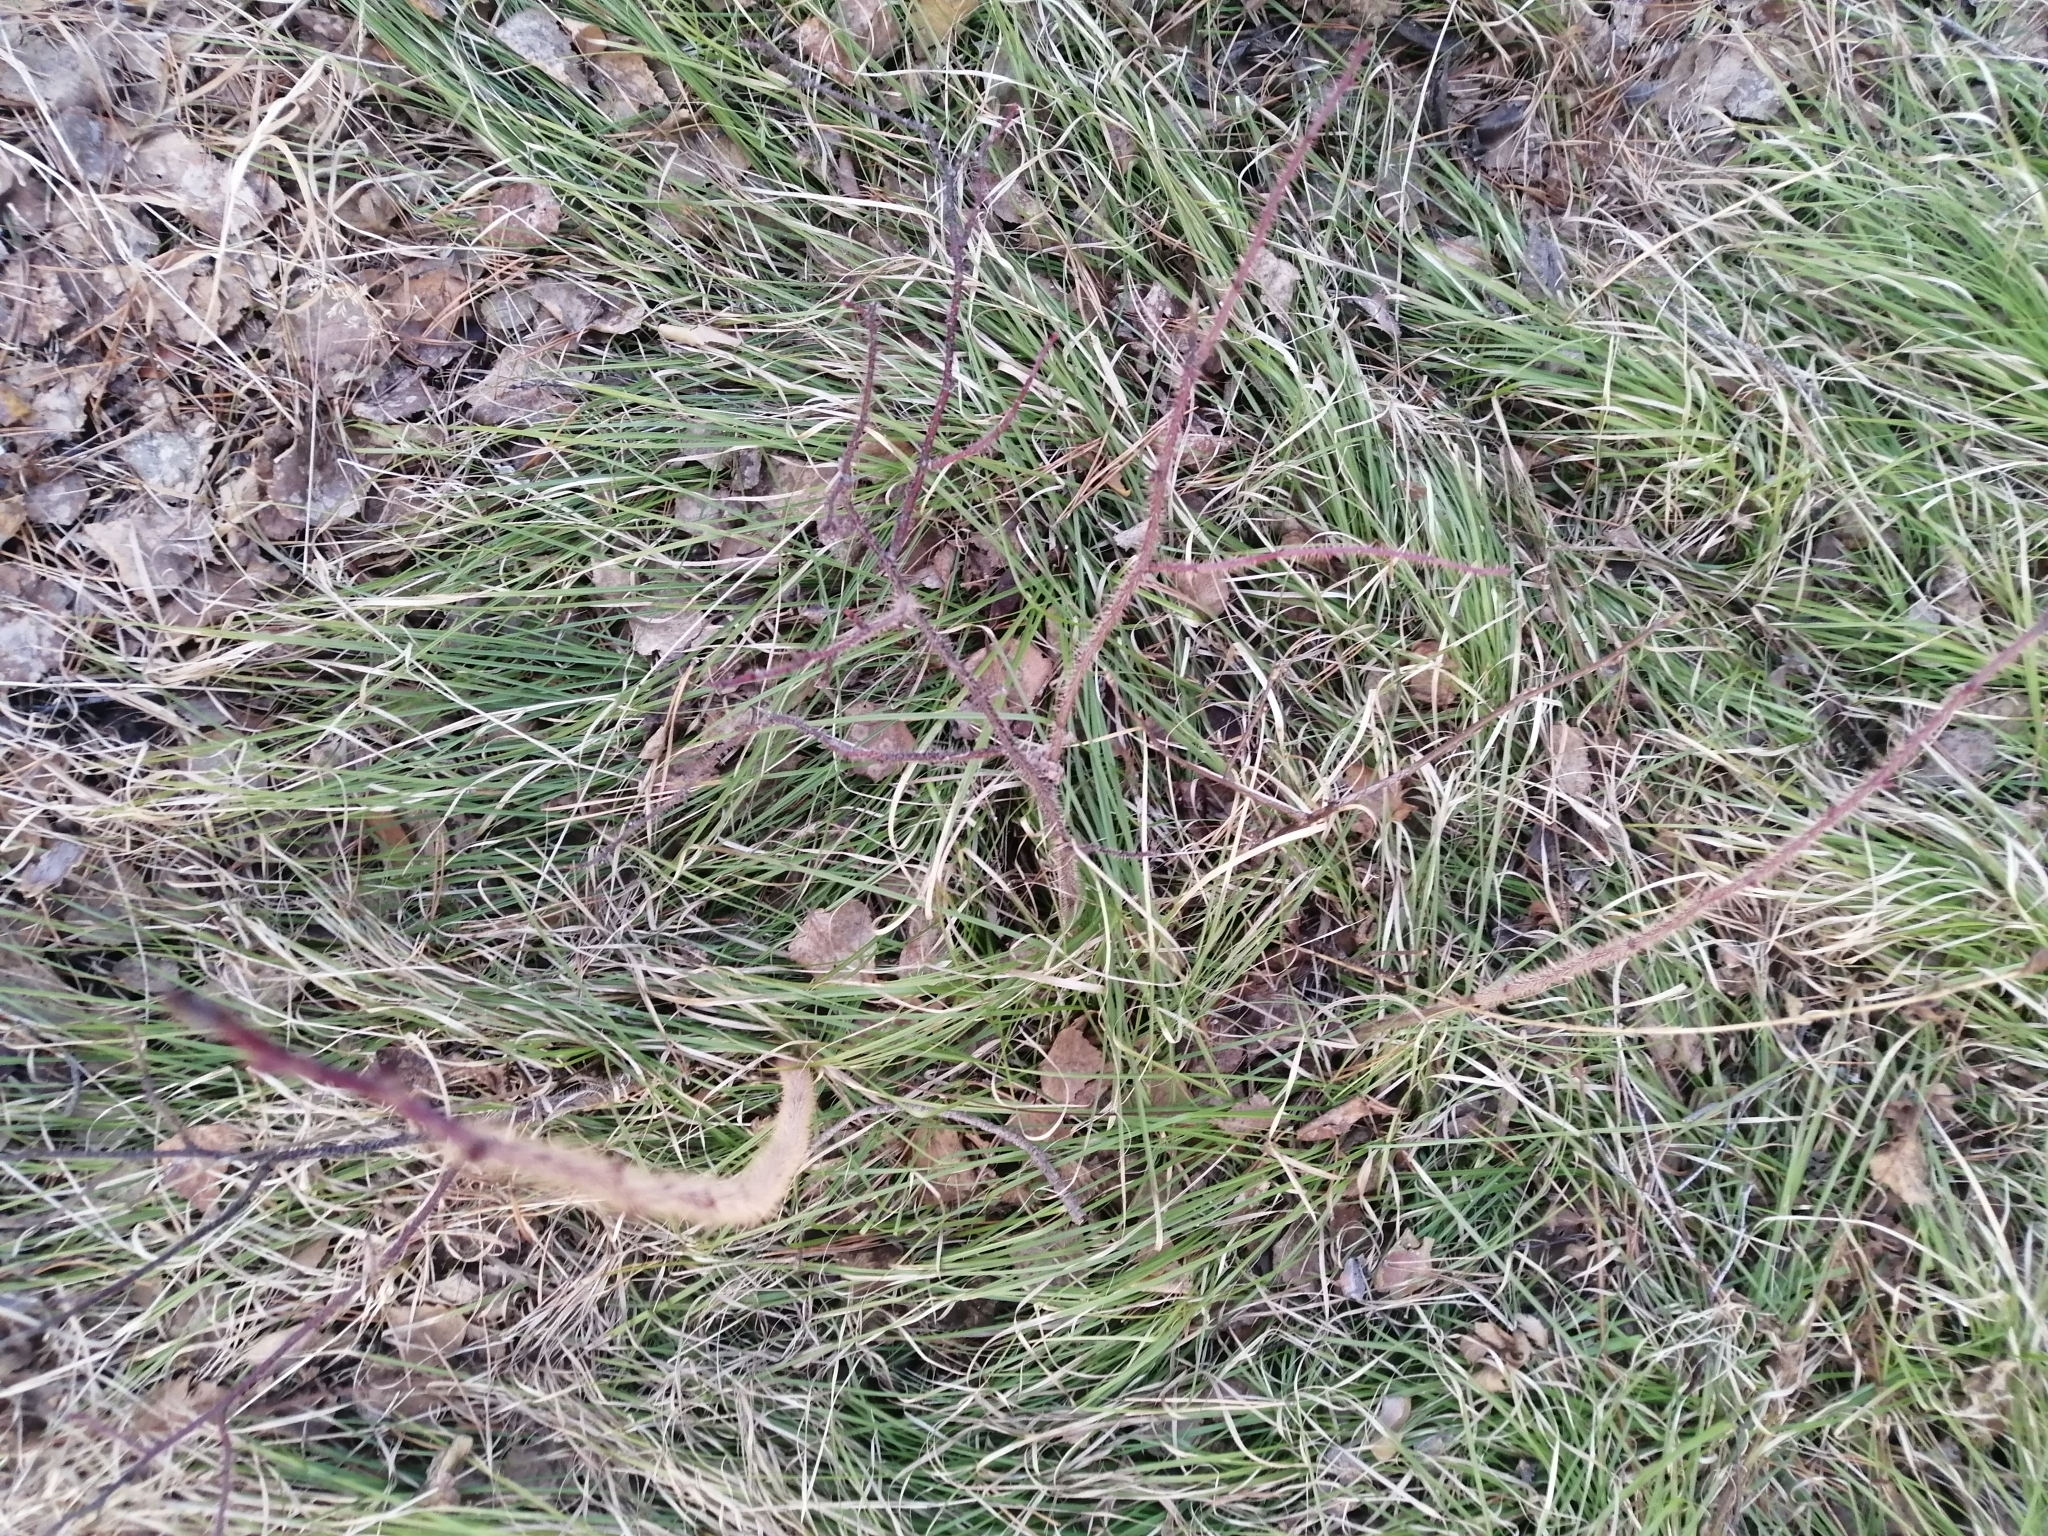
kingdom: Plantae
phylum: Tracheophyta
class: Magnoliopsida
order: Rosales
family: Rosaceae
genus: Rosa
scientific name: Rosa acicularis
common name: Prickly rose
